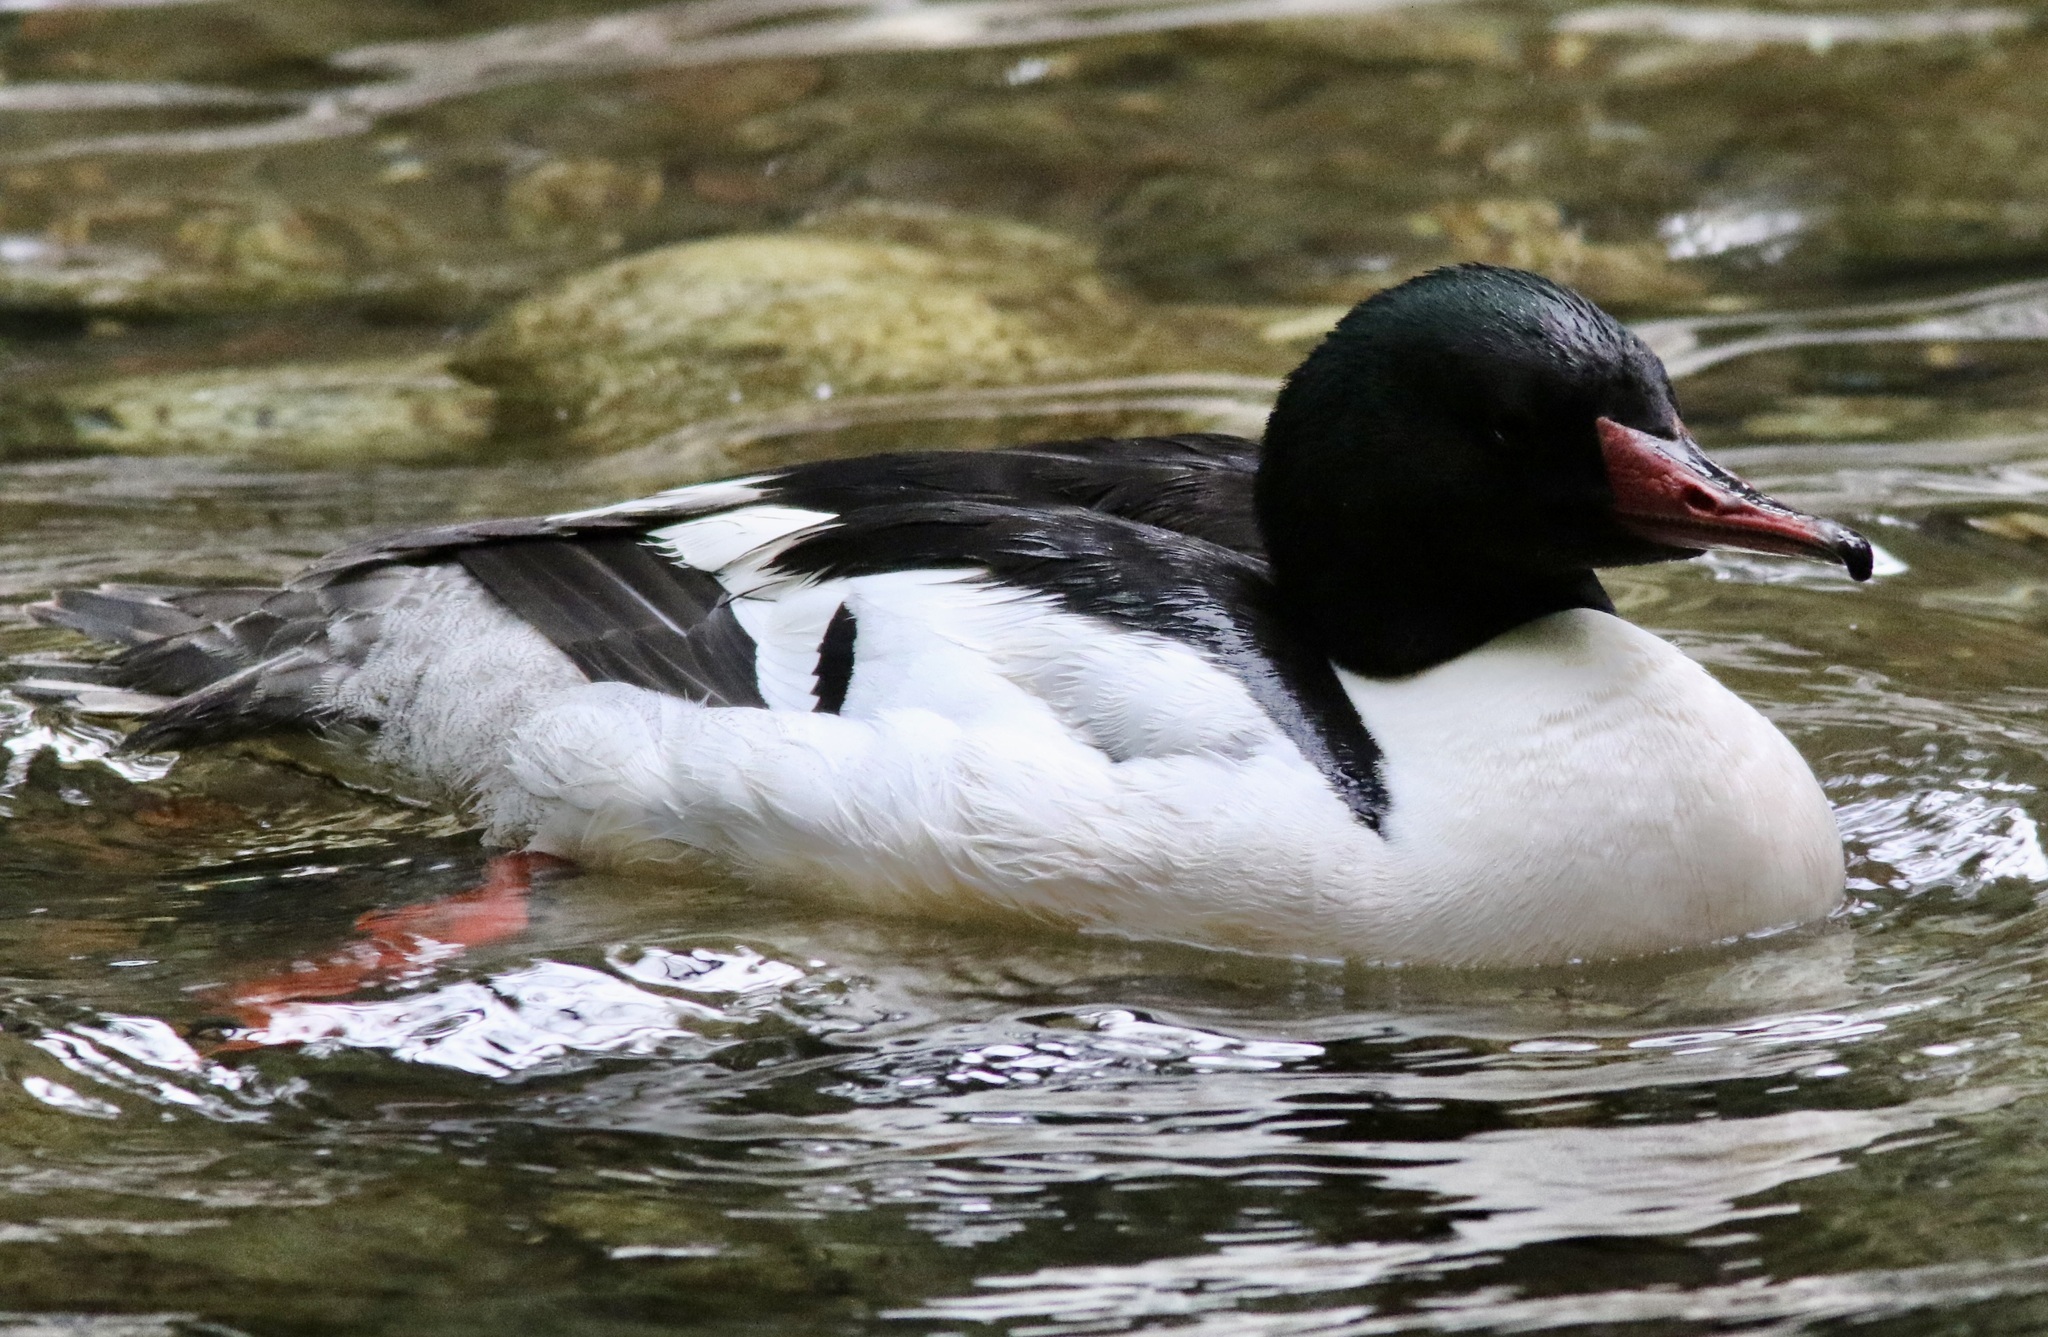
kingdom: Animalia
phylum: Chordata
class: Aves
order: Anseriformes
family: Anatidae
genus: Mergus
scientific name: Mergus merganser
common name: Common merganser
